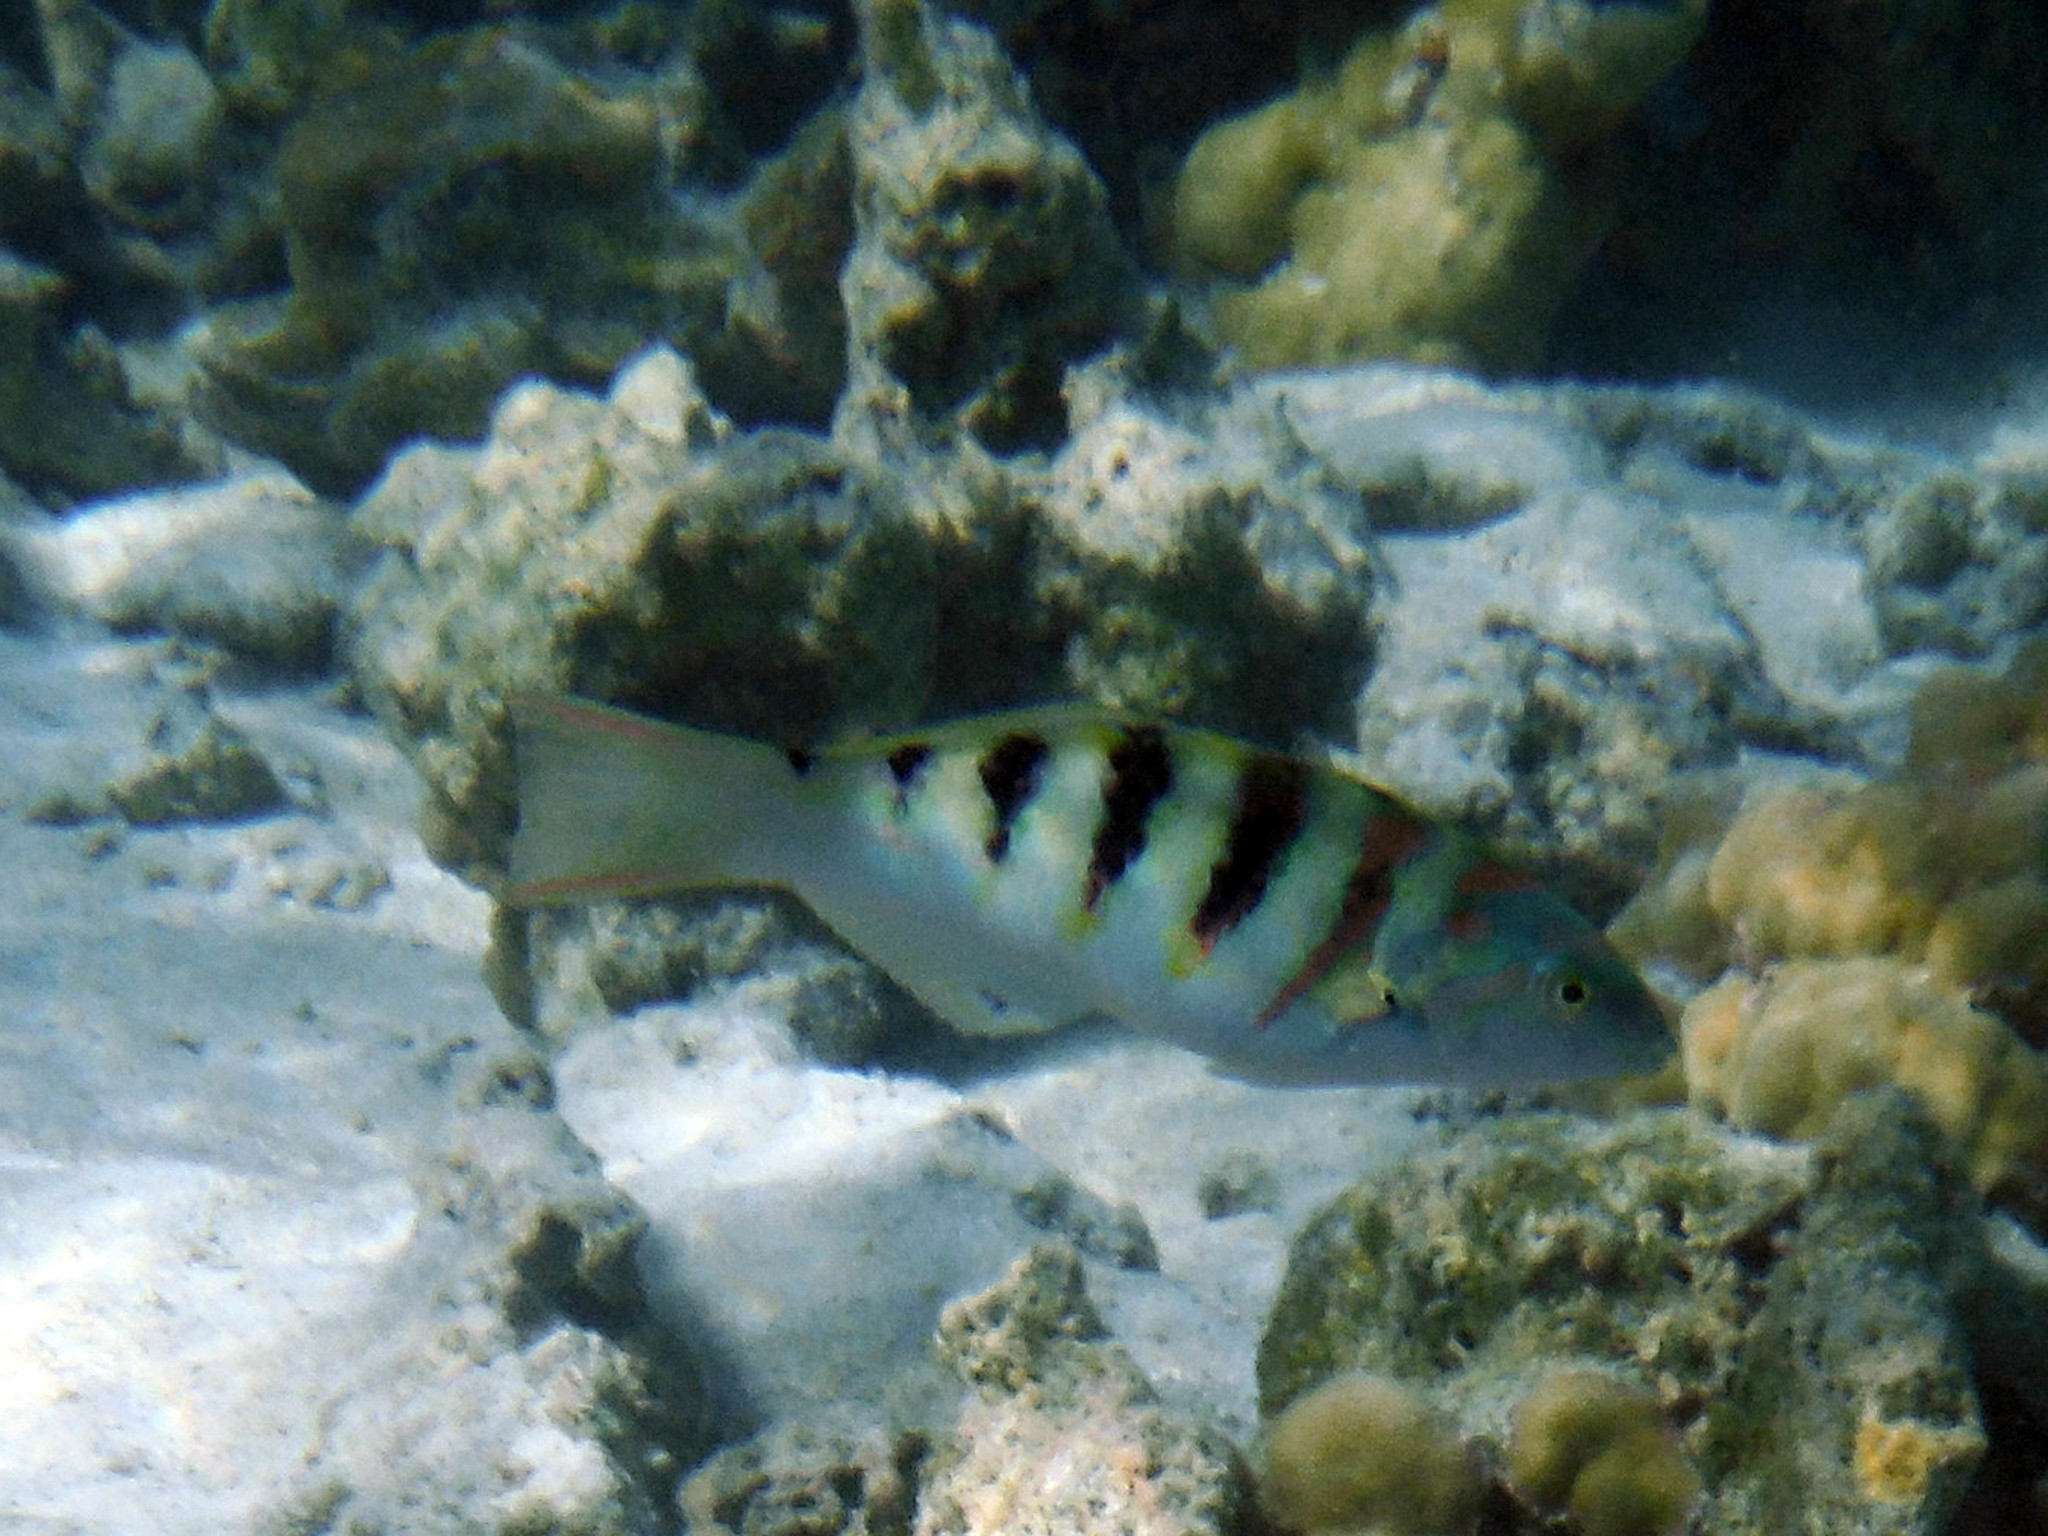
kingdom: Animalia
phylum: Chordata
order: Perciformes
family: Labridae
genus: Thalassoma
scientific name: Thalassoma hardwicke
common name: Sixbar wrasse
